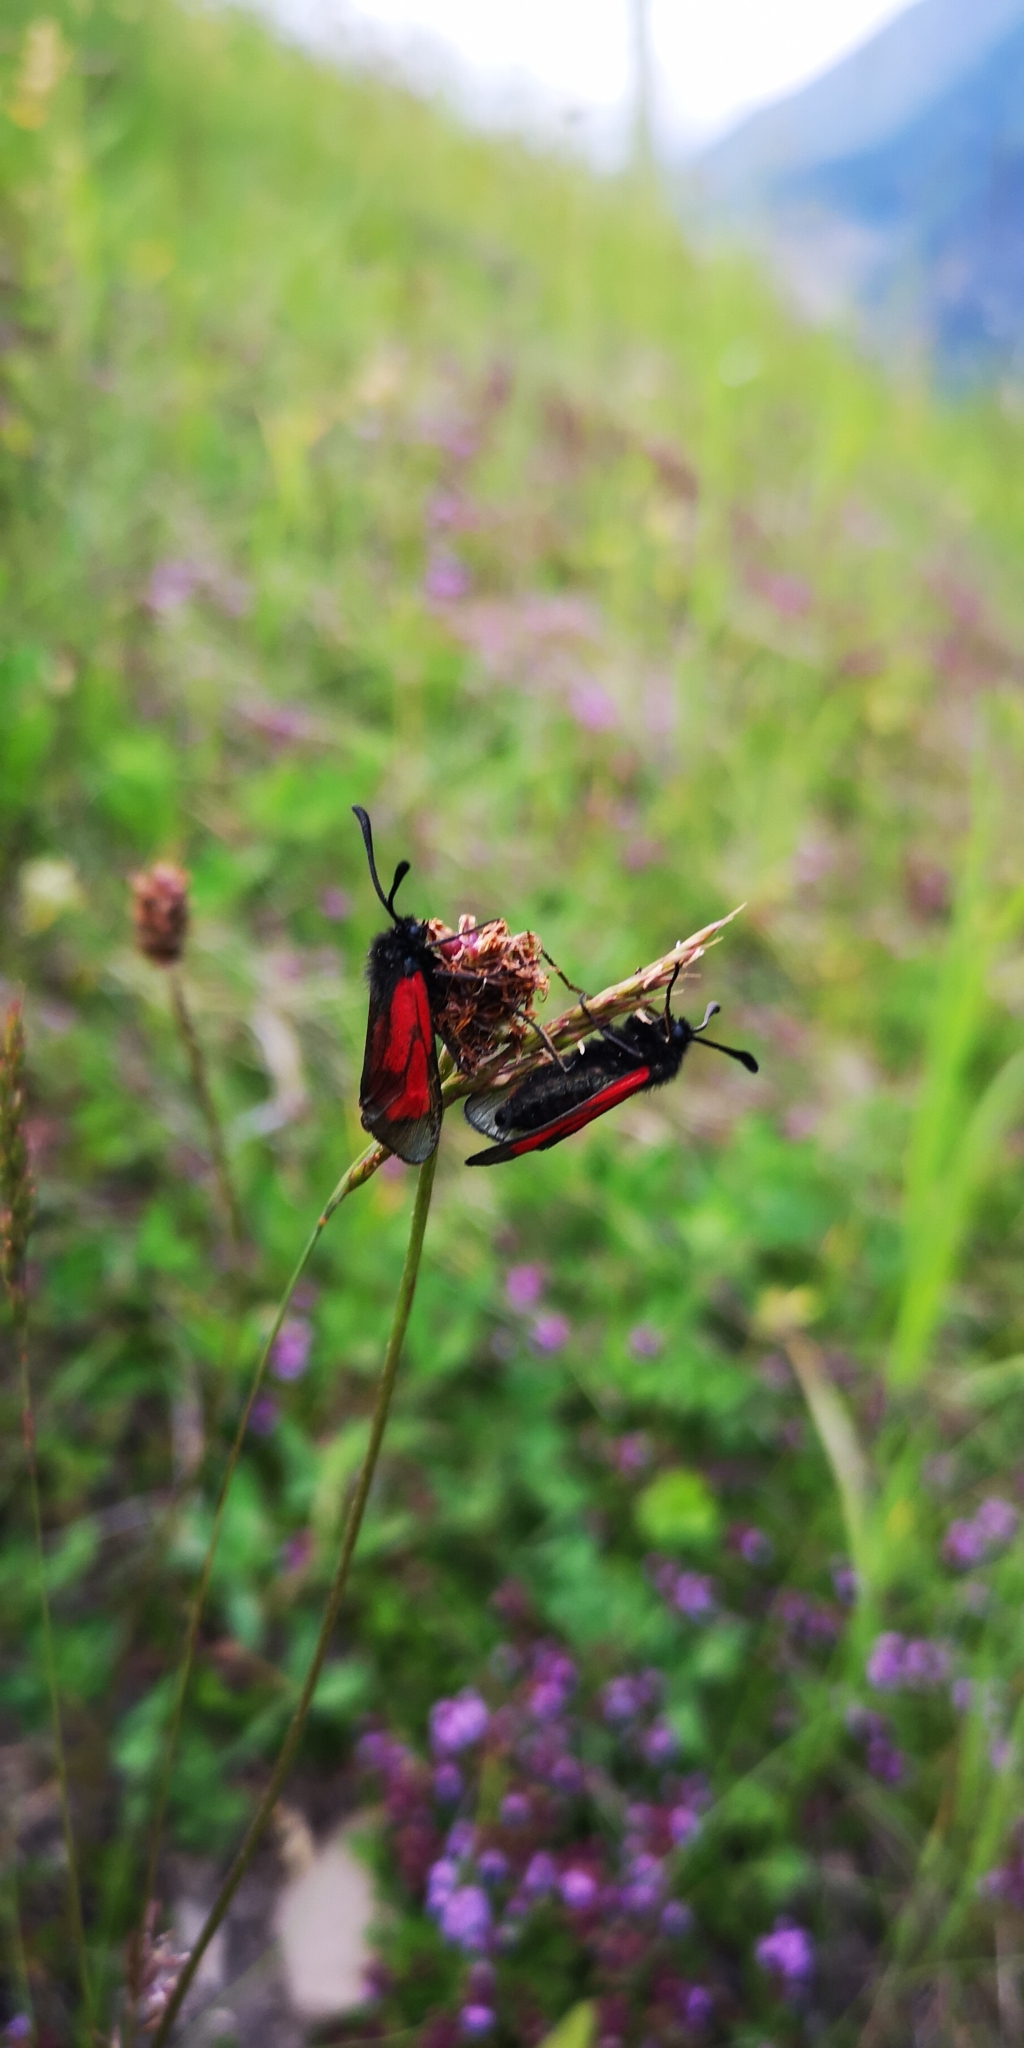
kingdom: Animalia
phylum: Arthropoda
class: Insecta
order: Lepidoptera
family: Zygaenidae
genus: Zygaena
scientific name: Zygaena
